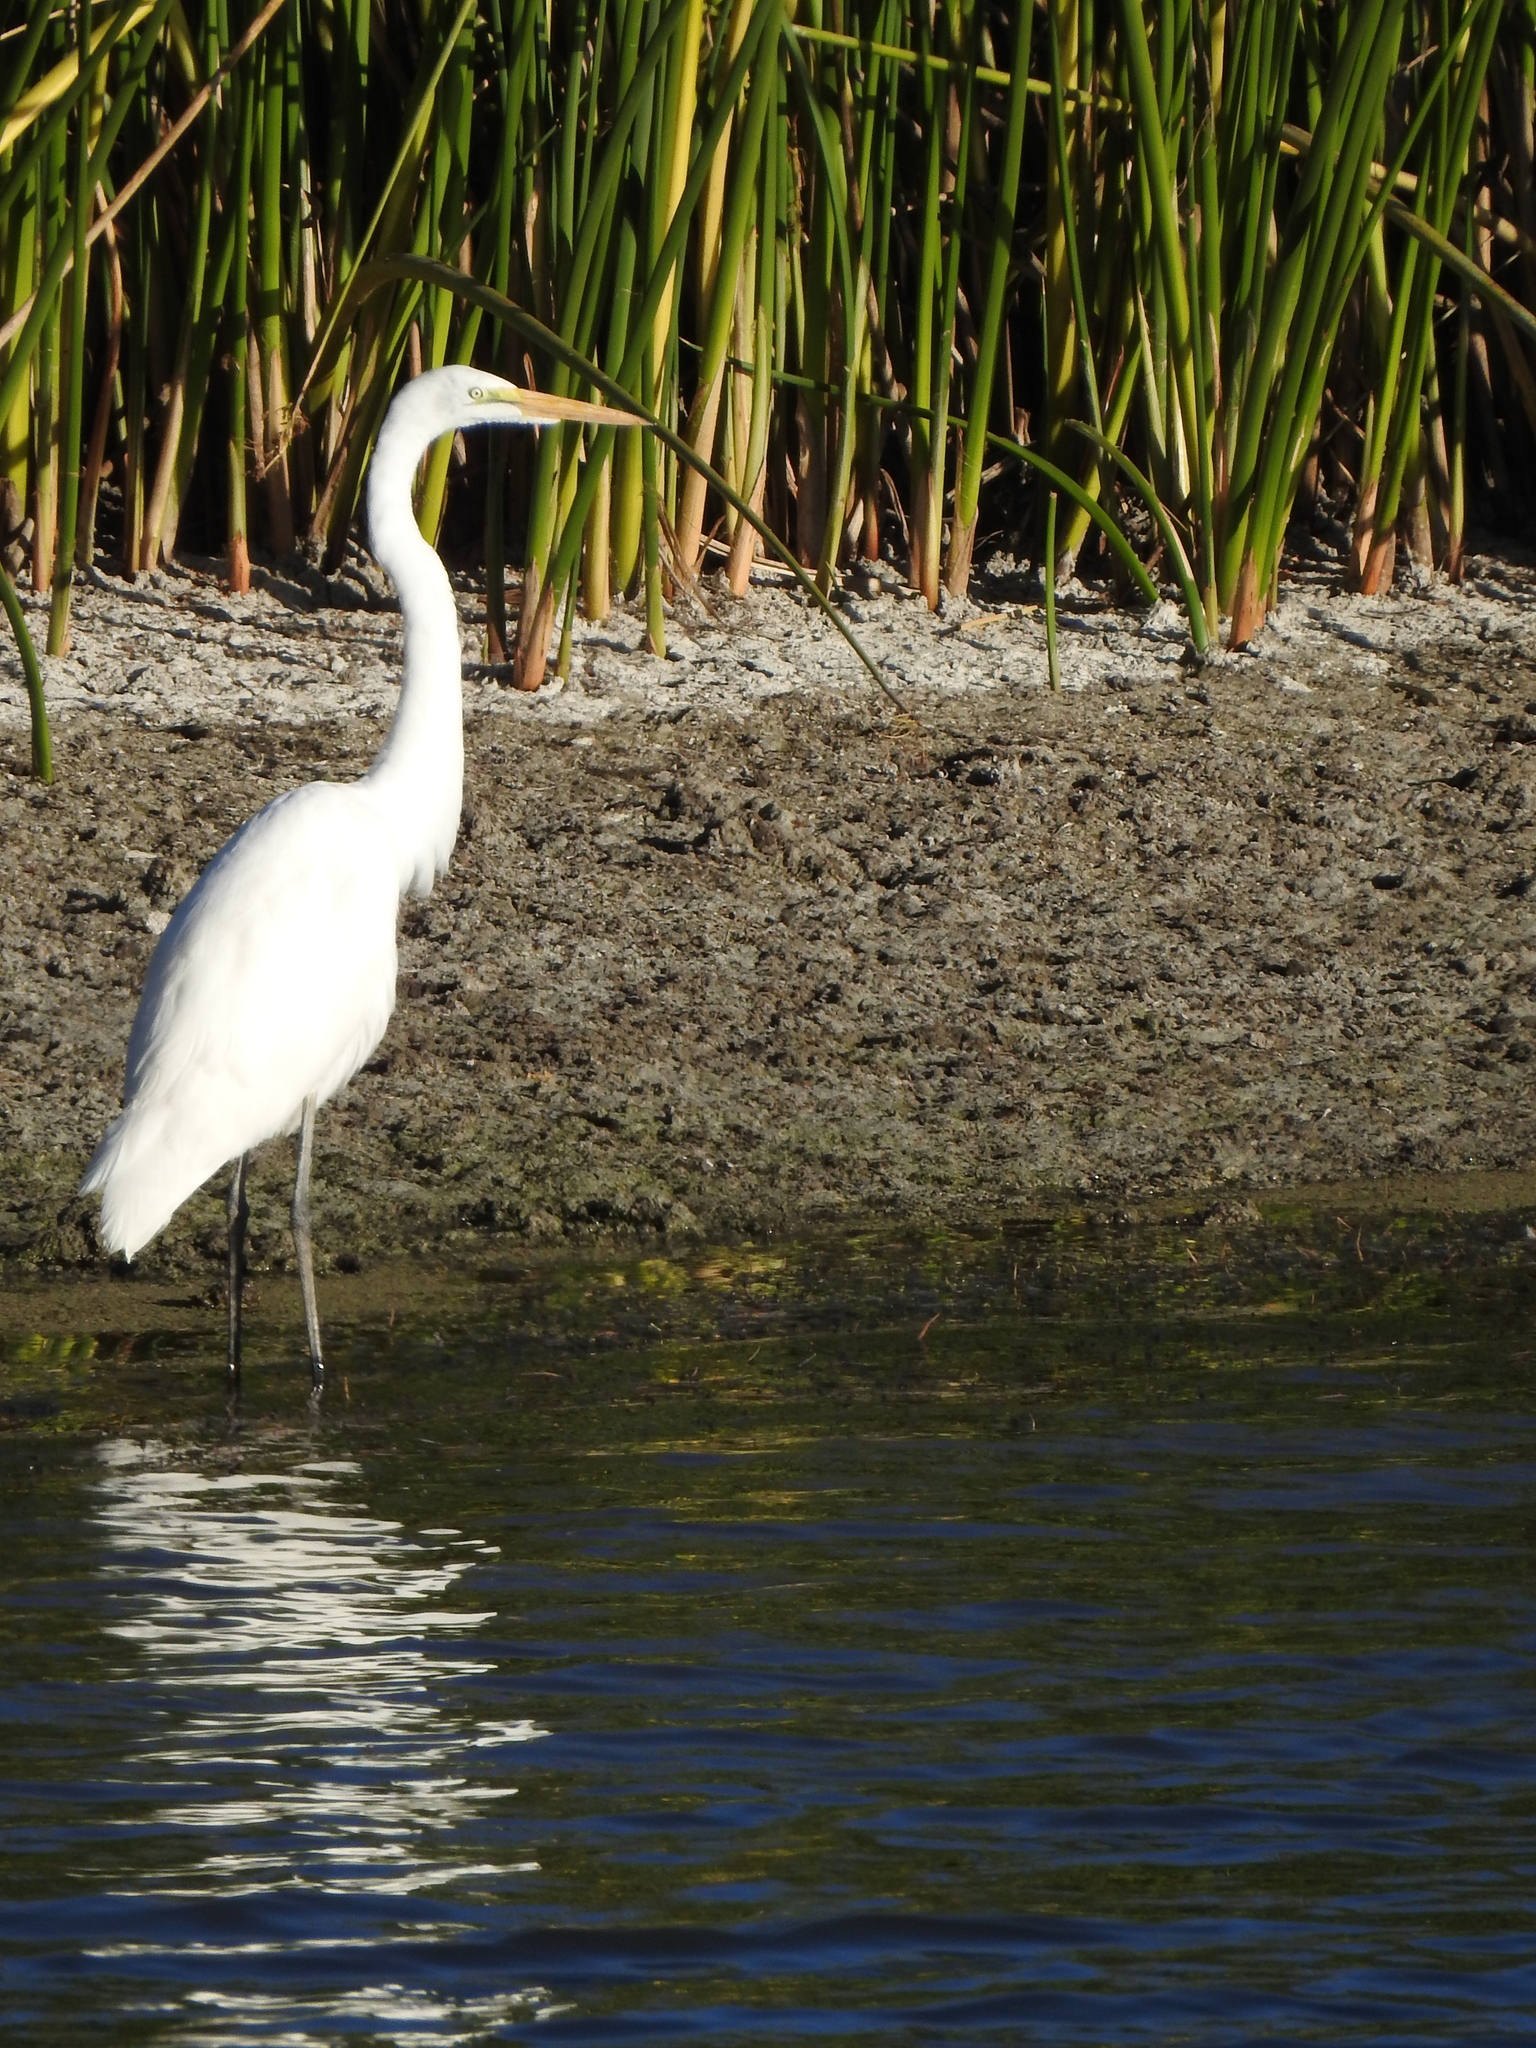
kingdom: Animalia
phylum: Chordata
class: Aves
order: Pelecaniformes
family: Ardeidae
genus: Ardea
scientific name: Ardea alba
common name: Great egret
